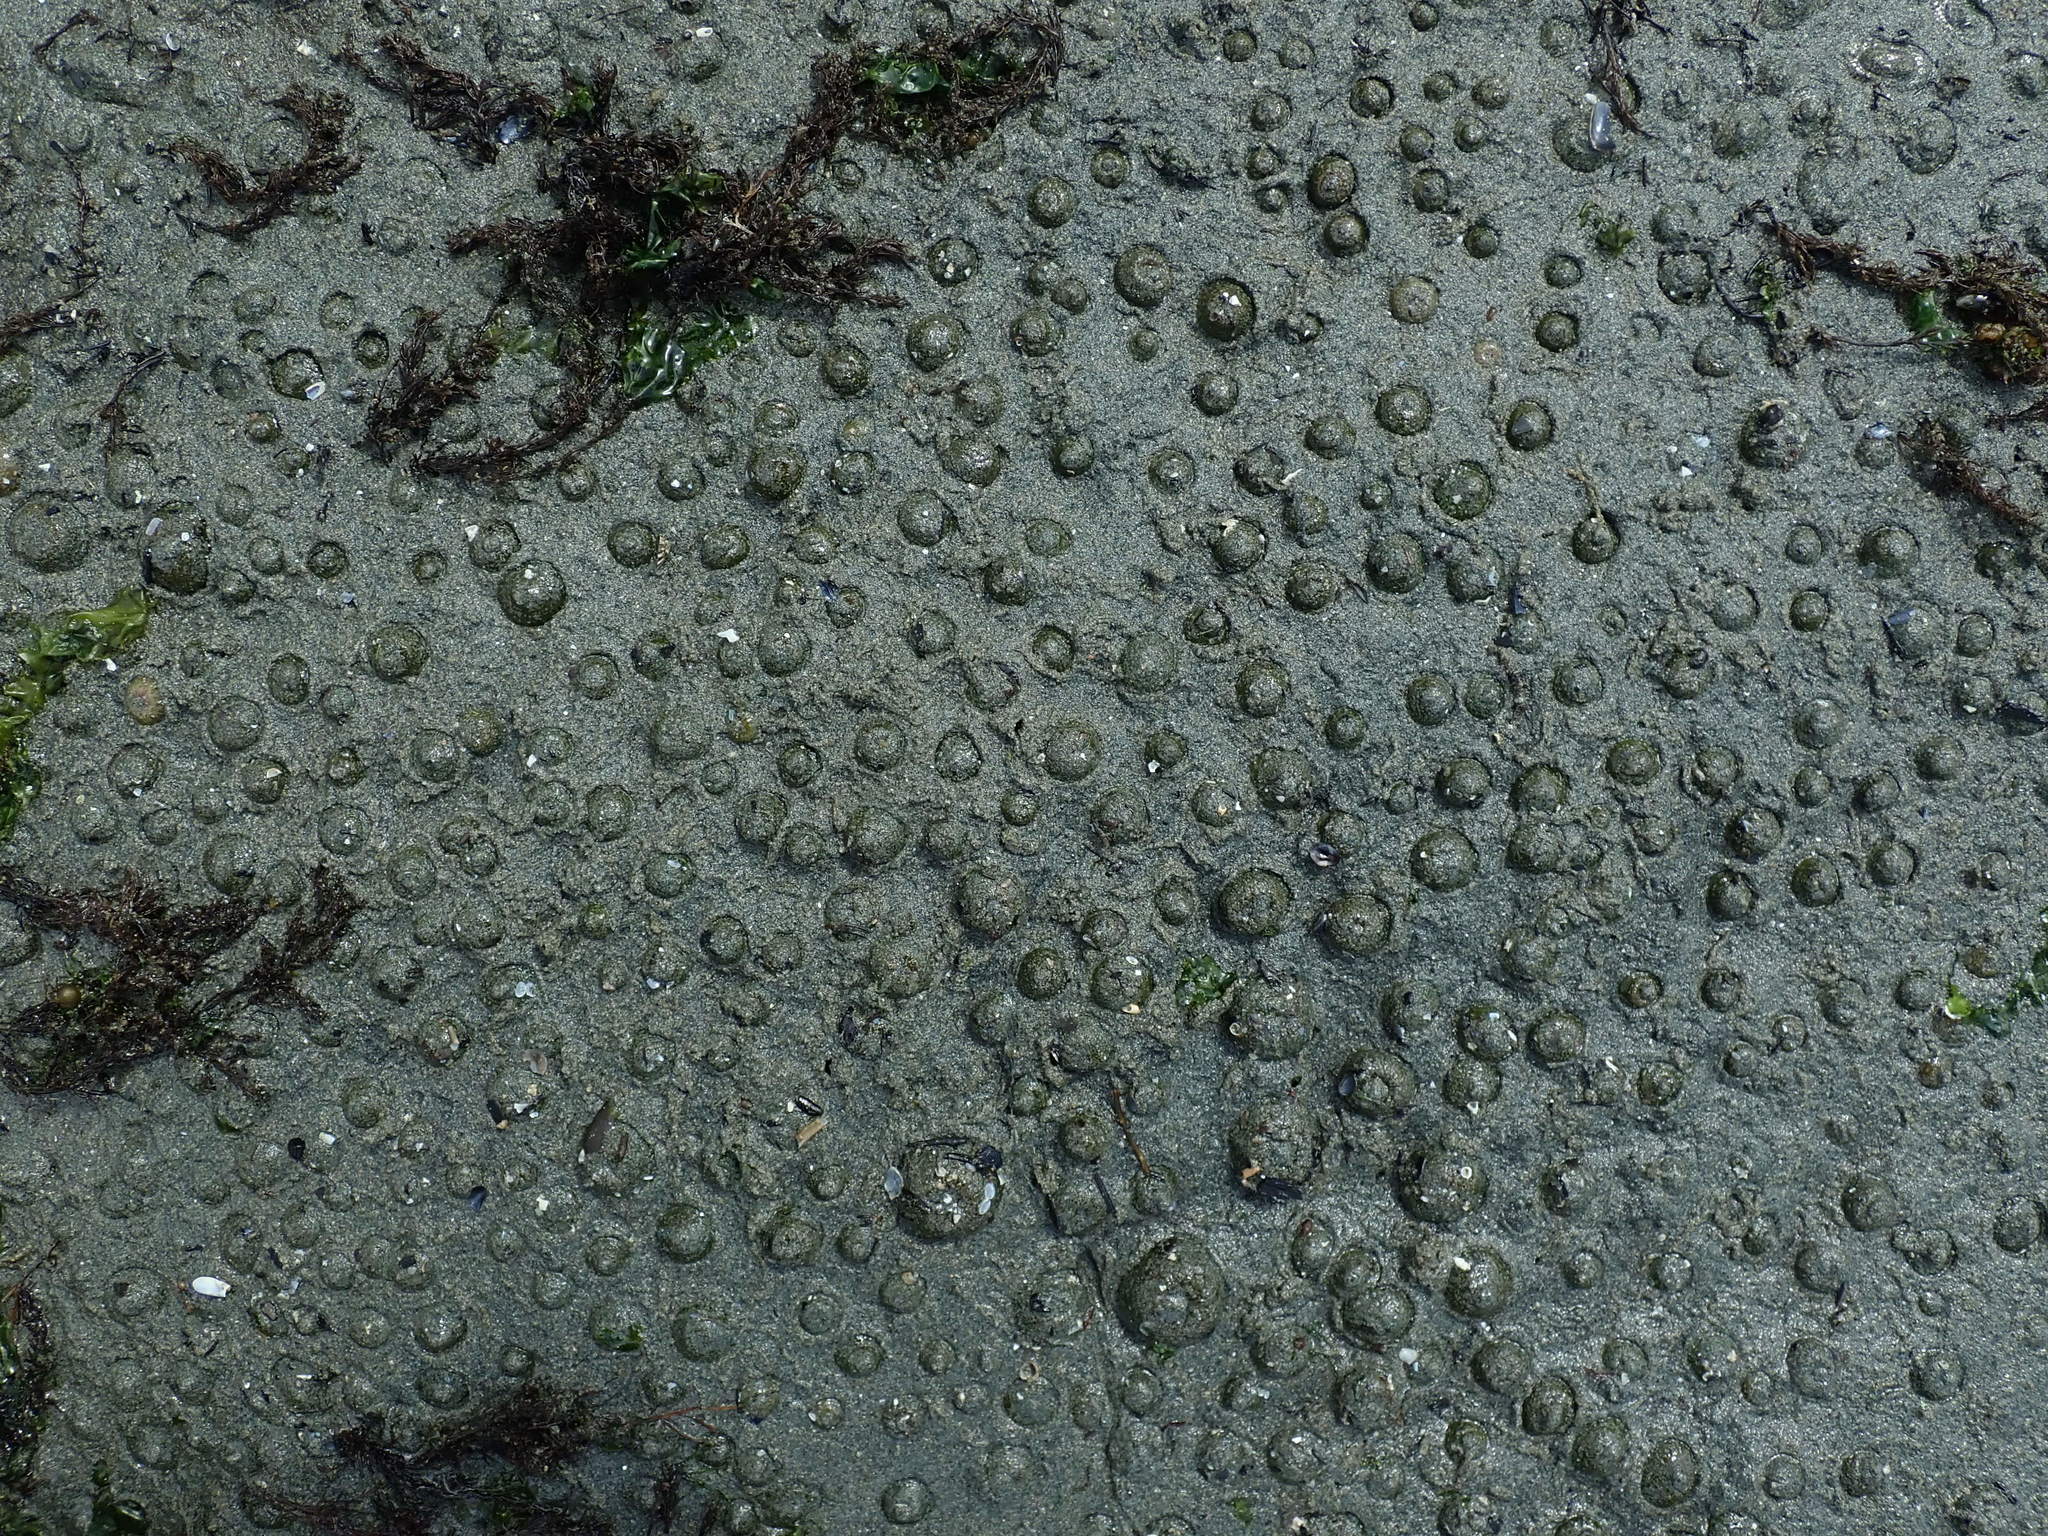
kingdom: Animalia
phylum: Cnidaria
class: Anthozoa
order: Actiniaria
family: Actiniidae
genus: Anthopleura
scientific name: Anthopleura elegantissima
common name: Clonal anemone
